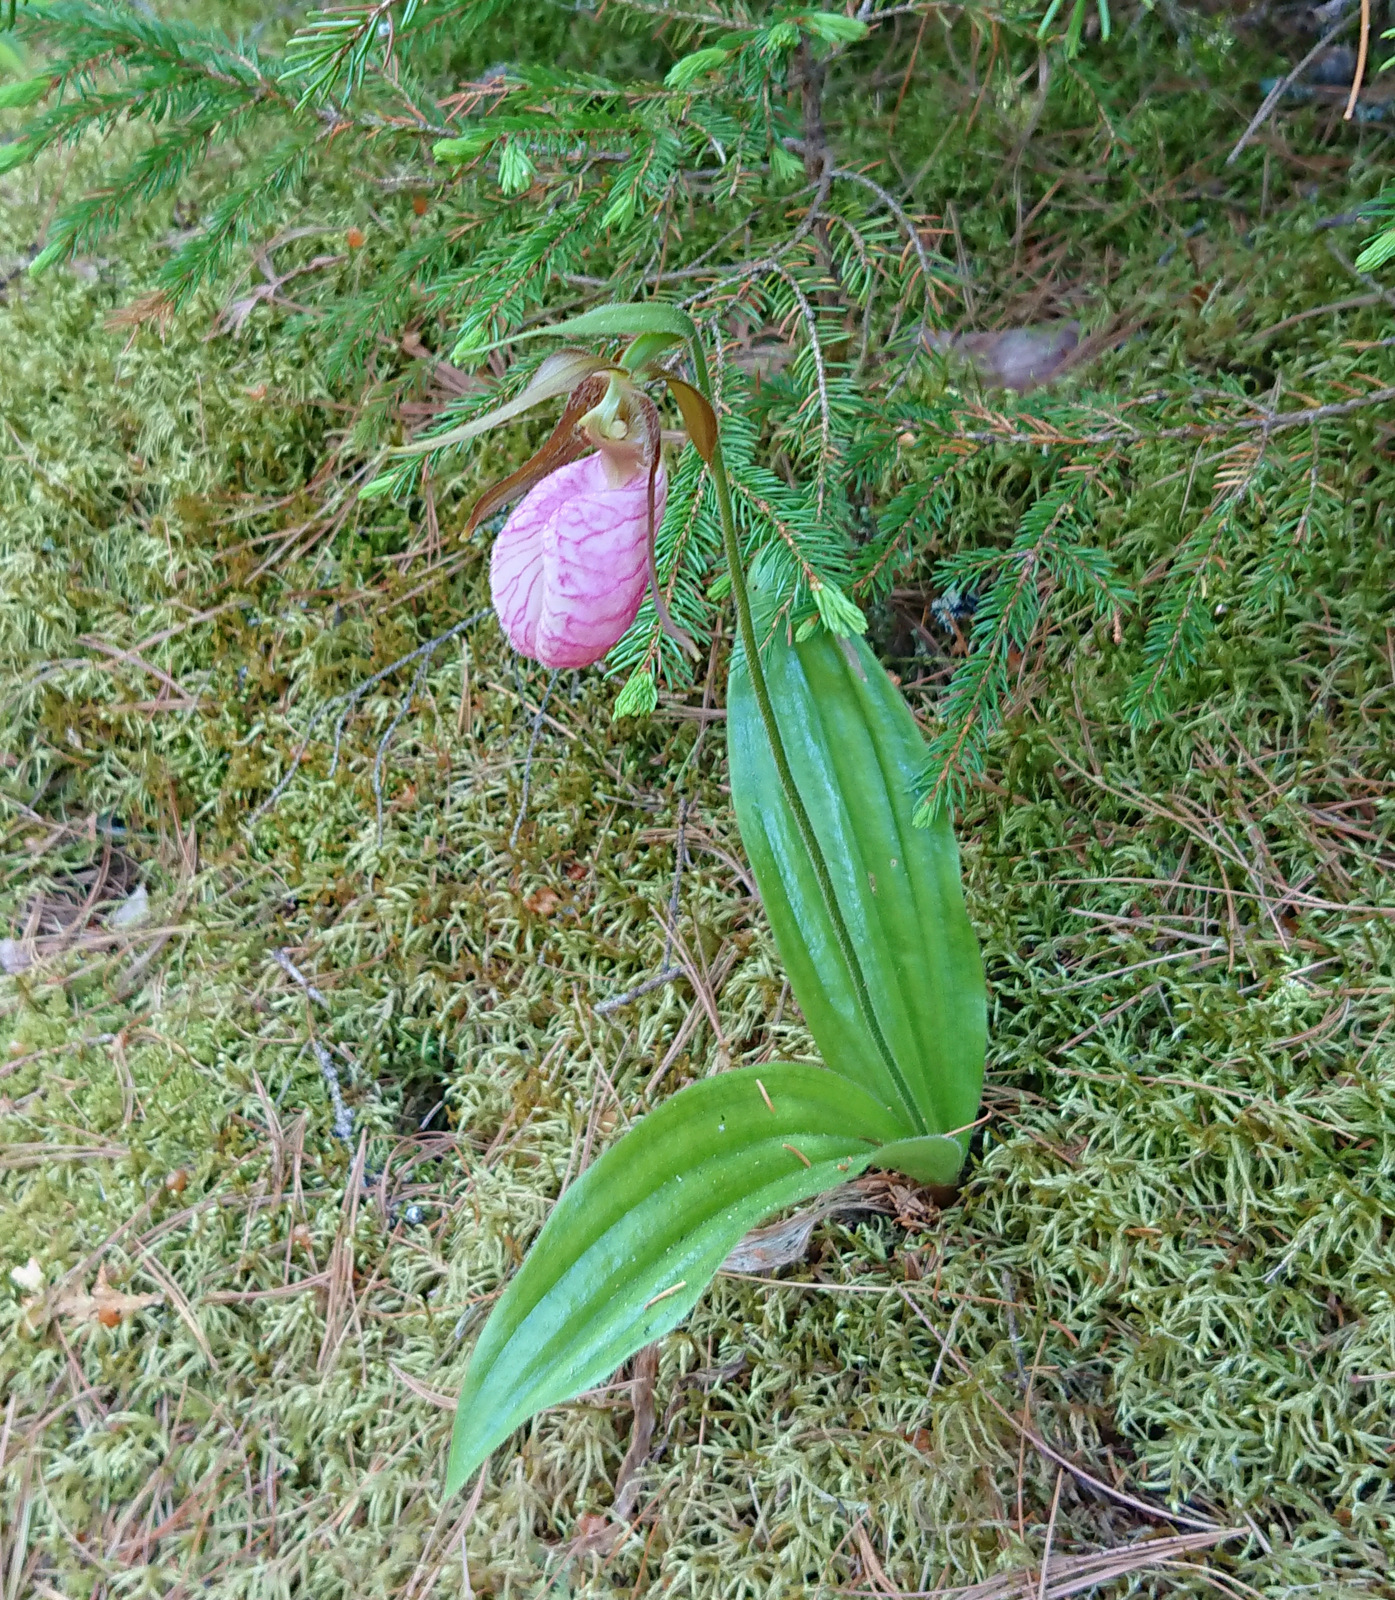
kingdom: Plantae
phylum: Tracheophyta
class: Liliopsida
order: Asparagales
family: Orchidaceae
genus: Cypripedium
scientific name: Cypripedium acaule
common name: Pink lady's-slipper
